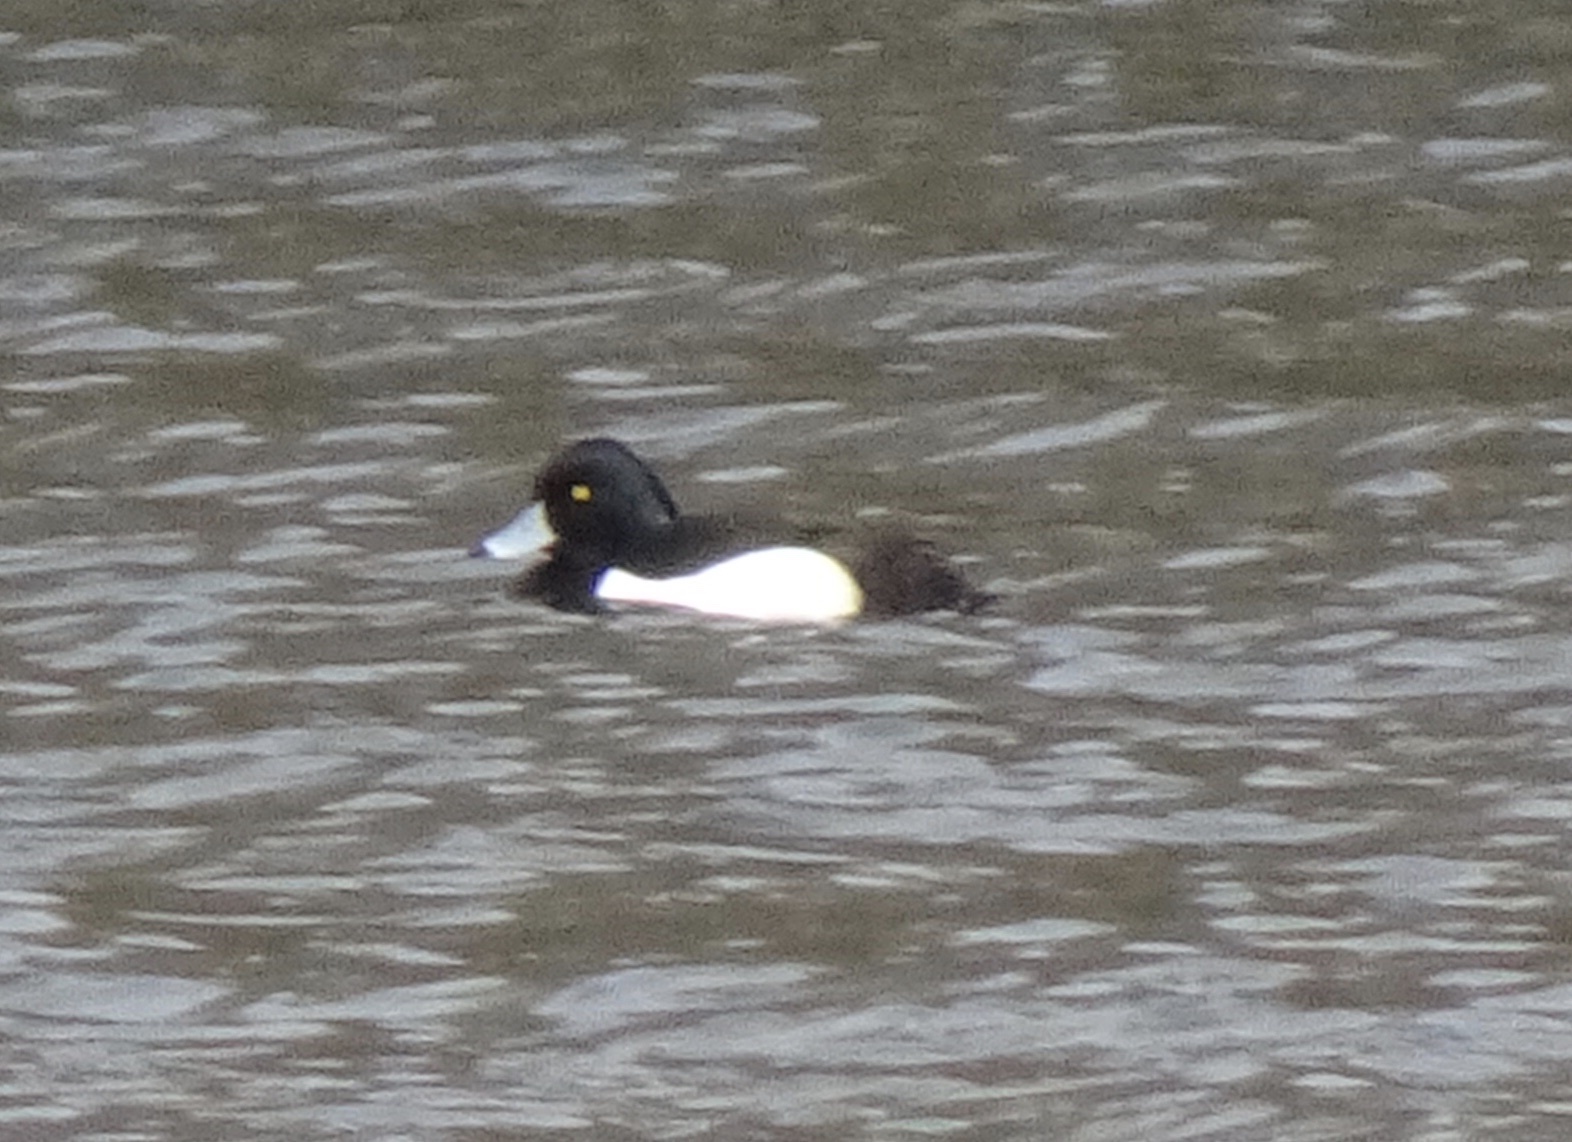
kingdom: Animalia
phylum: Chordata
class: Aves
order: Anseriformes
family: Anatidae
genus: Aythya
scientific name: Aythya fuligula
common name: Tufted duck
